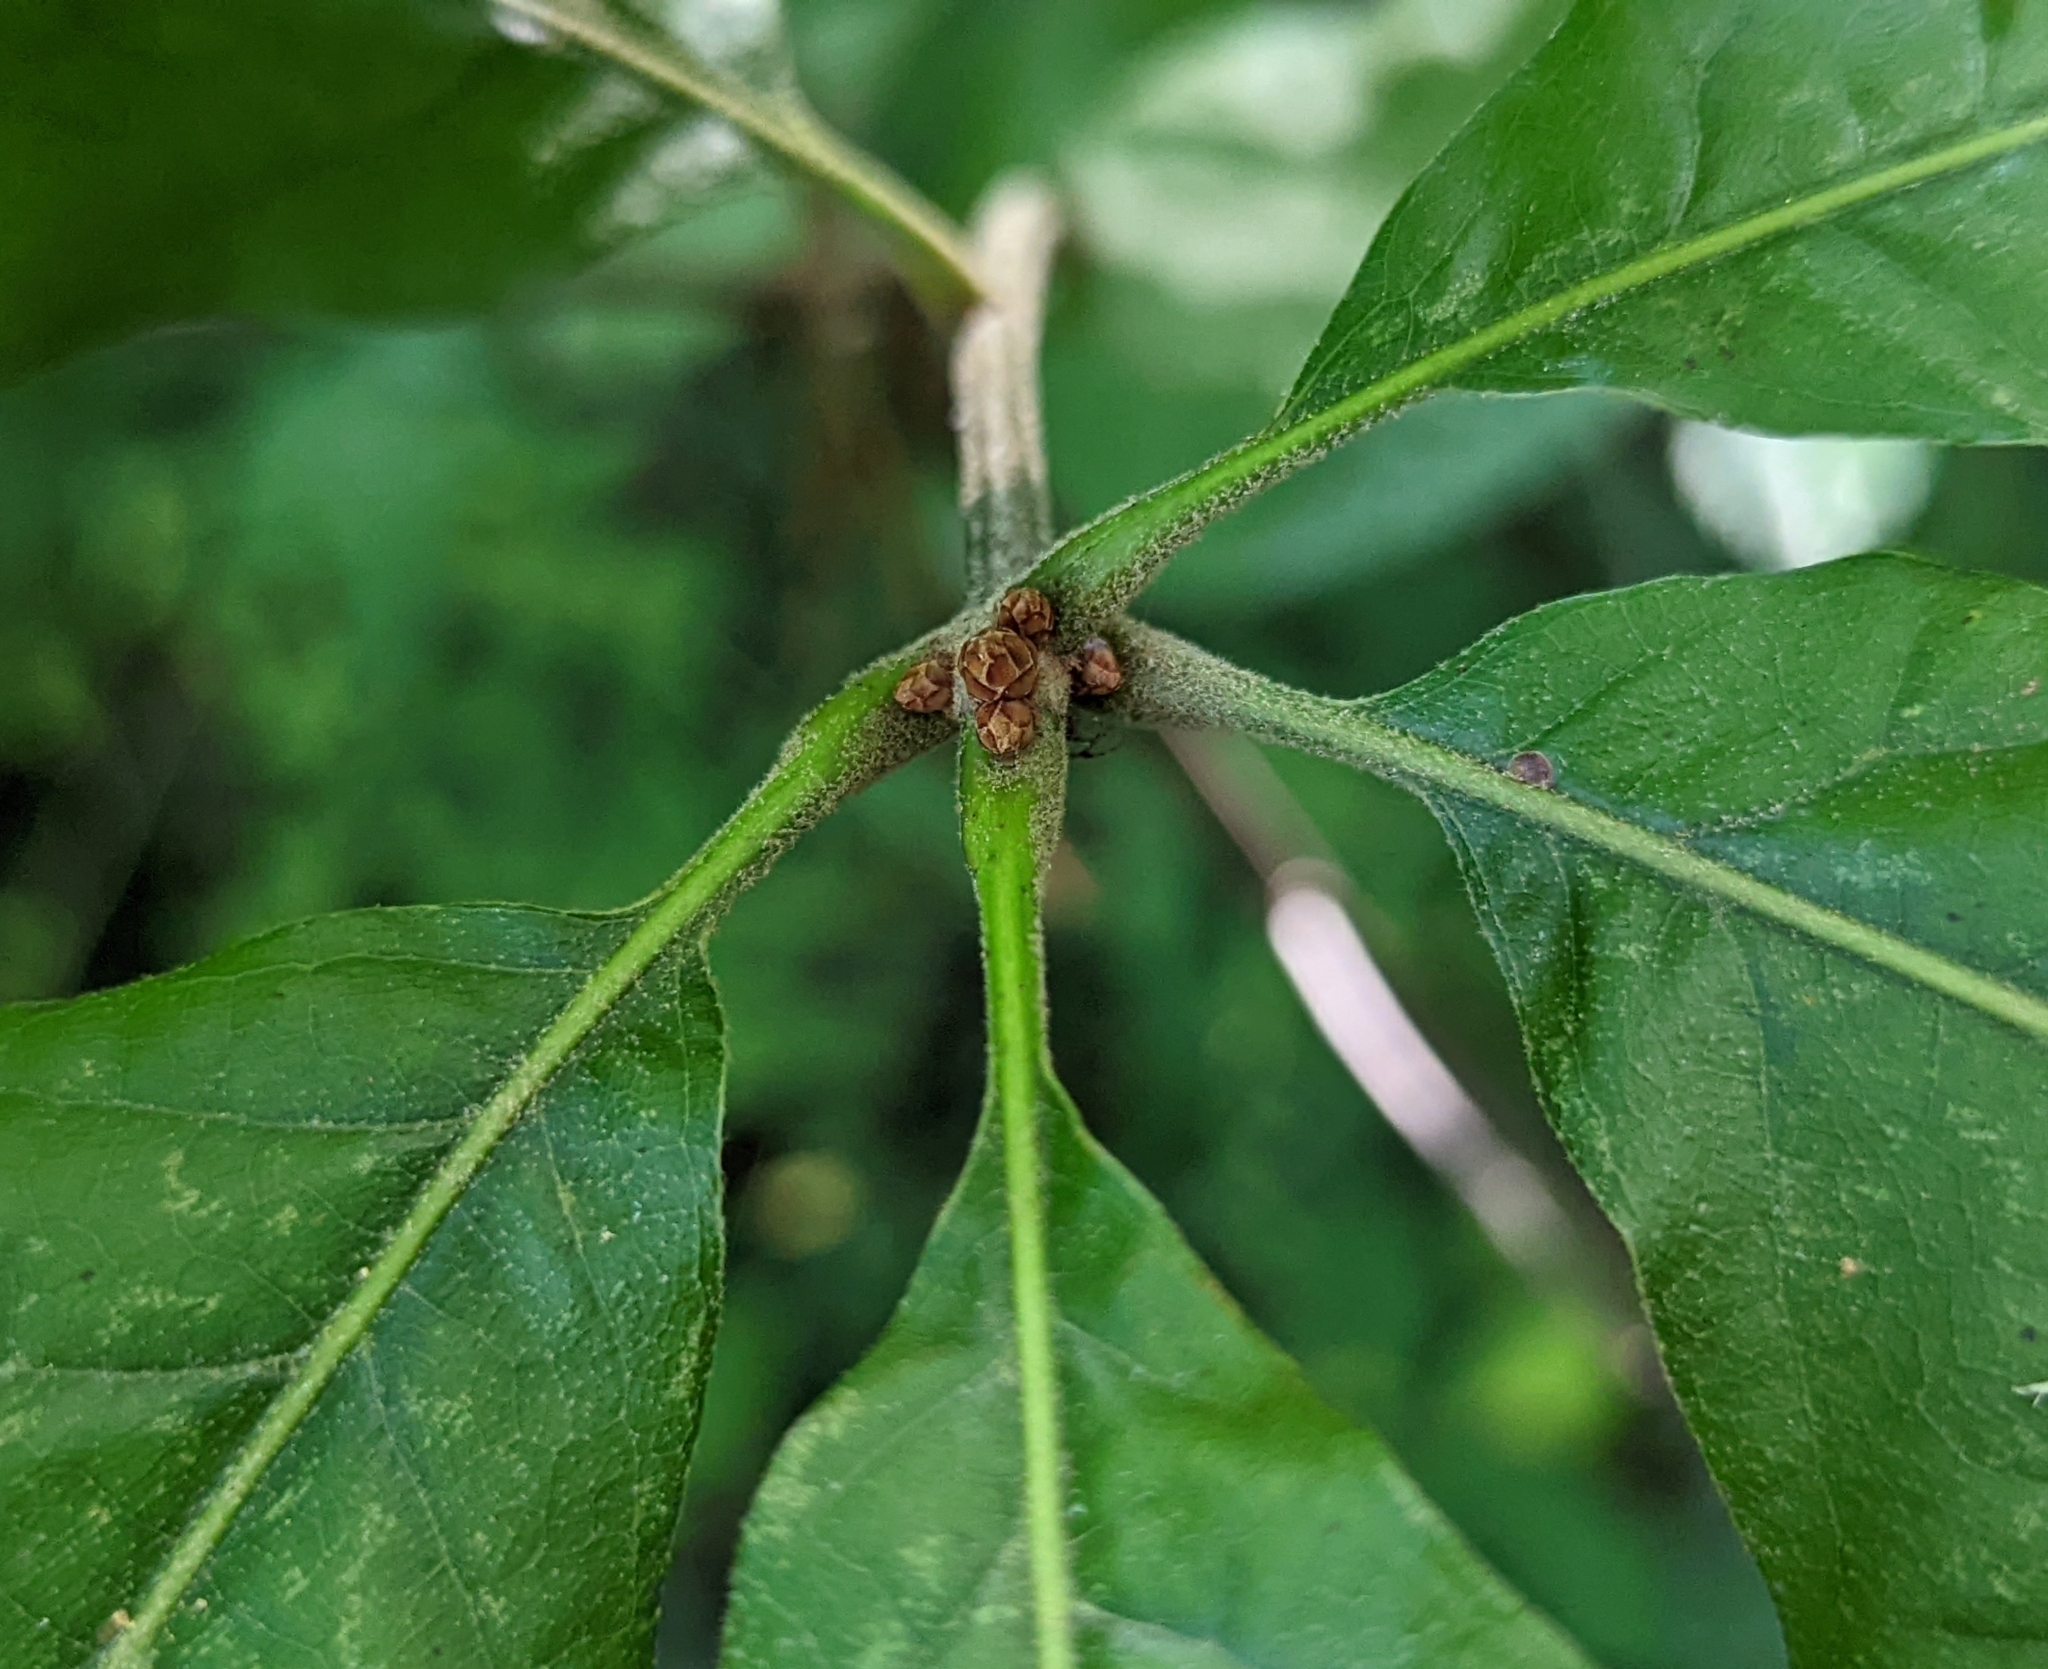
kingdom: Plantae
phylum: Tracheophyta
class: Magnoliopsida
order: Fagales
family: Fagaceae
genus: Quercus
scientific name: Quercus velutina
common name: Black oak
